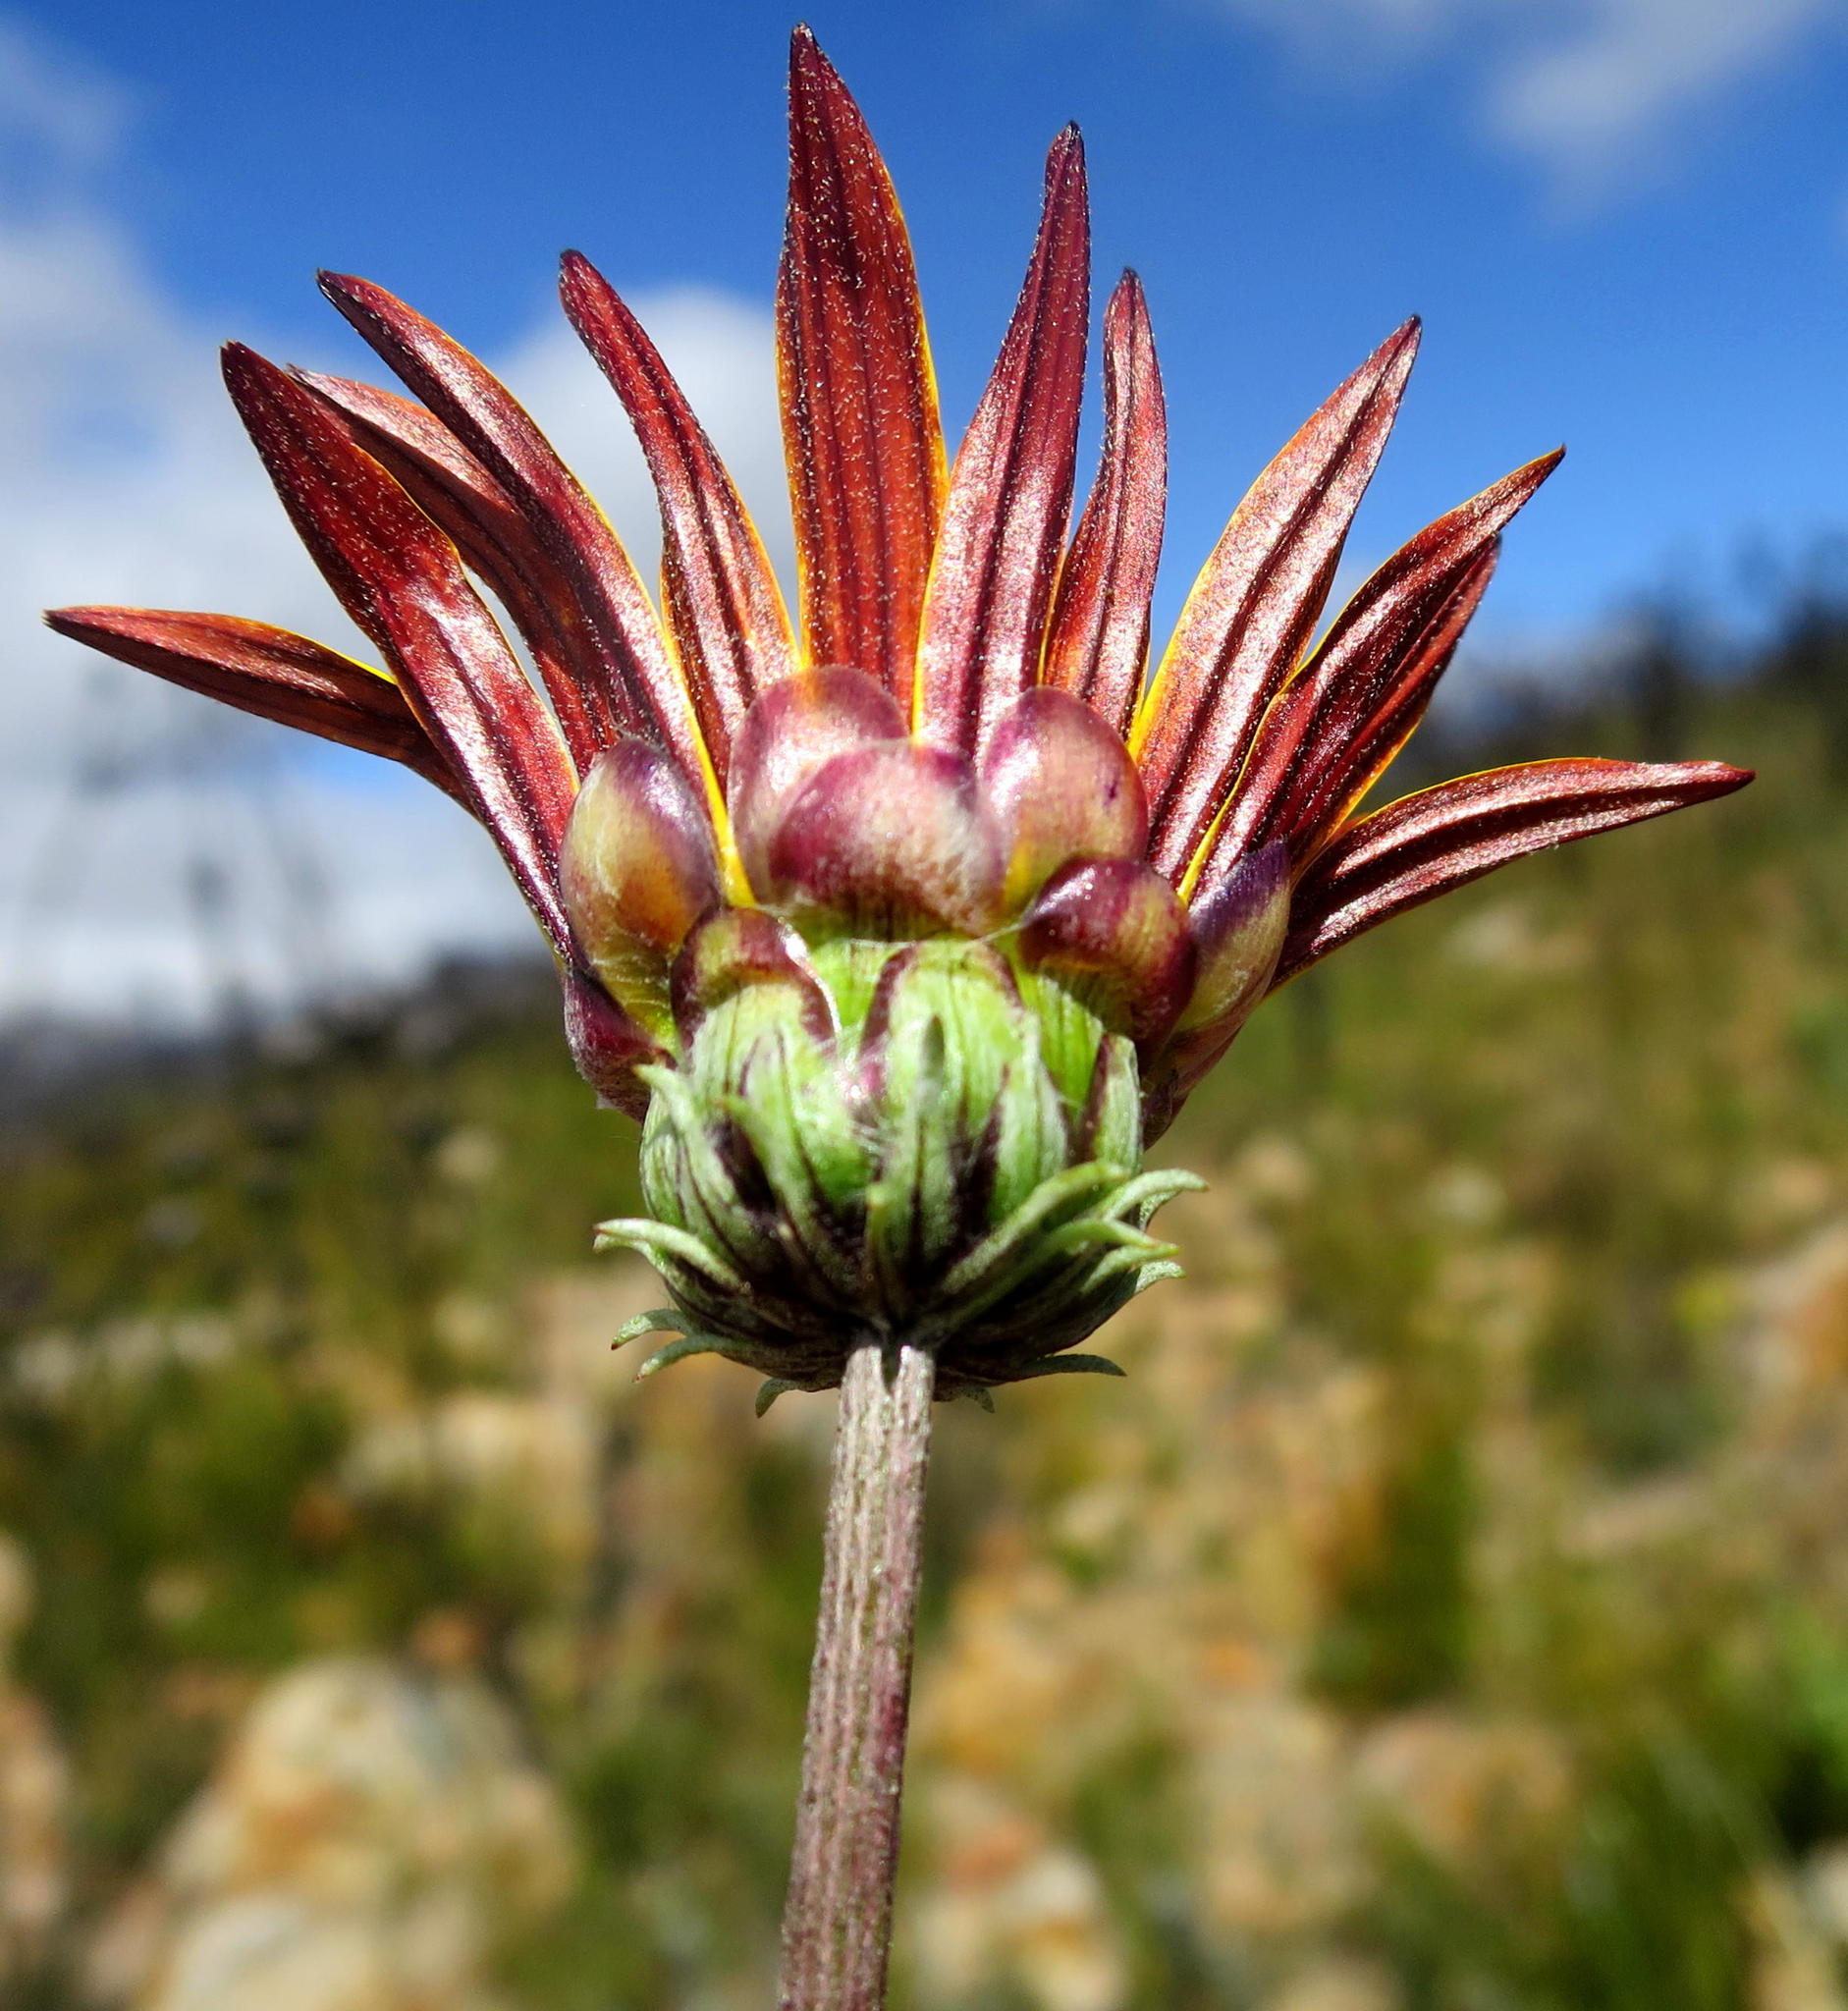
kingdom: Plantae
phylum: Tracheophyta
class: Magnoliopsida
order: Asterales
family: Asteraceae
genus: Arctotis
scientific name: Arctotis lanceolata
